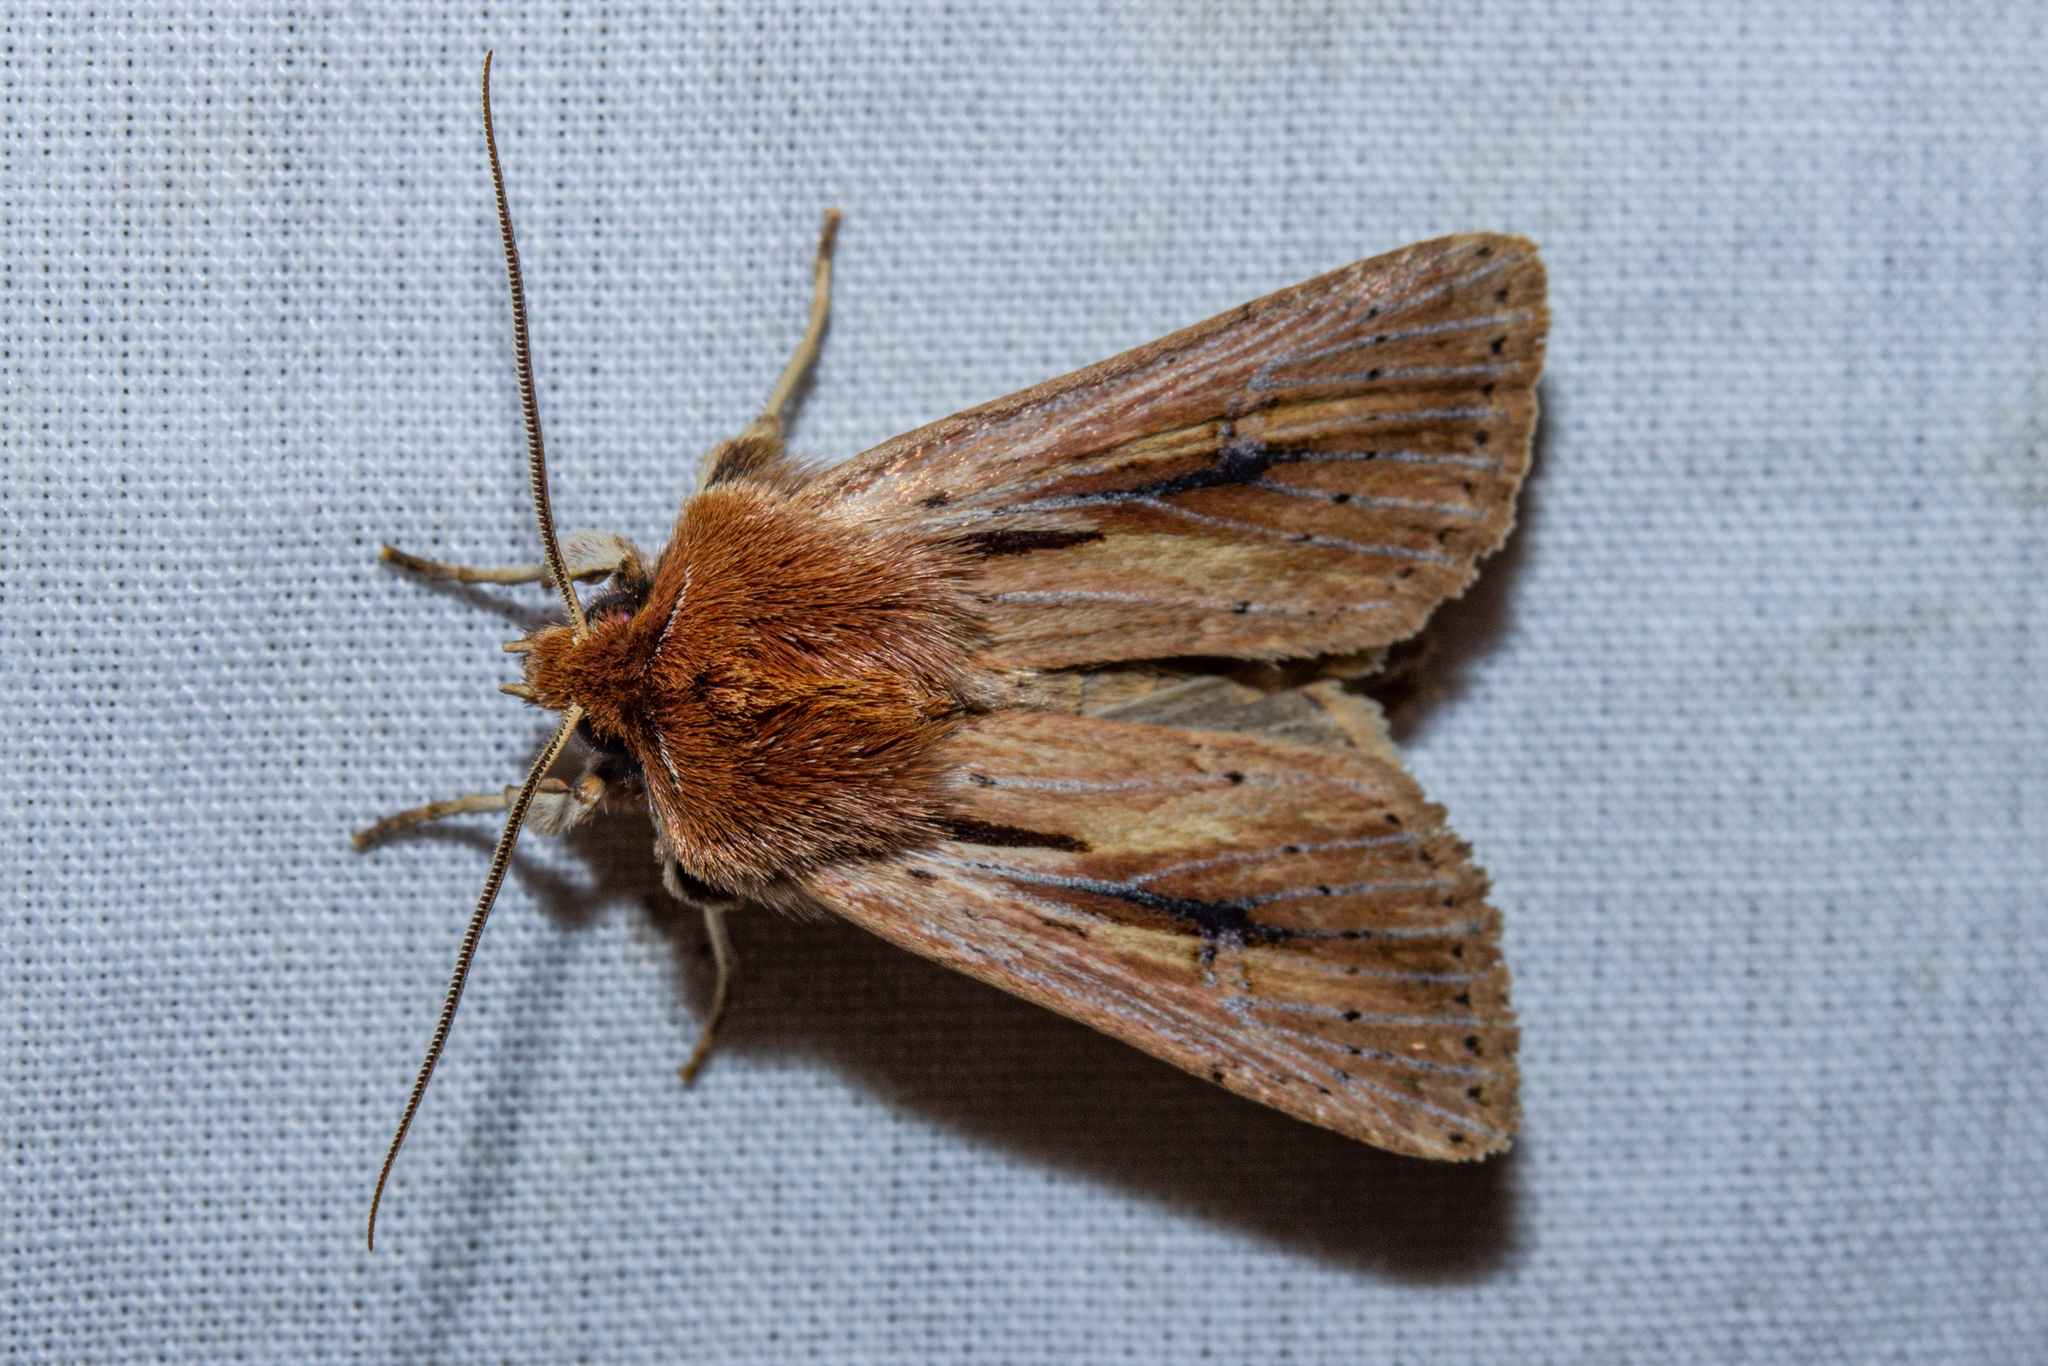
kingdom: Animalia
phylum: Arthropoda
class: Insecta
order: Lepidoptera
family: Noctuidae
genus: Ichneutica
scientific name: Ichneutica propria
